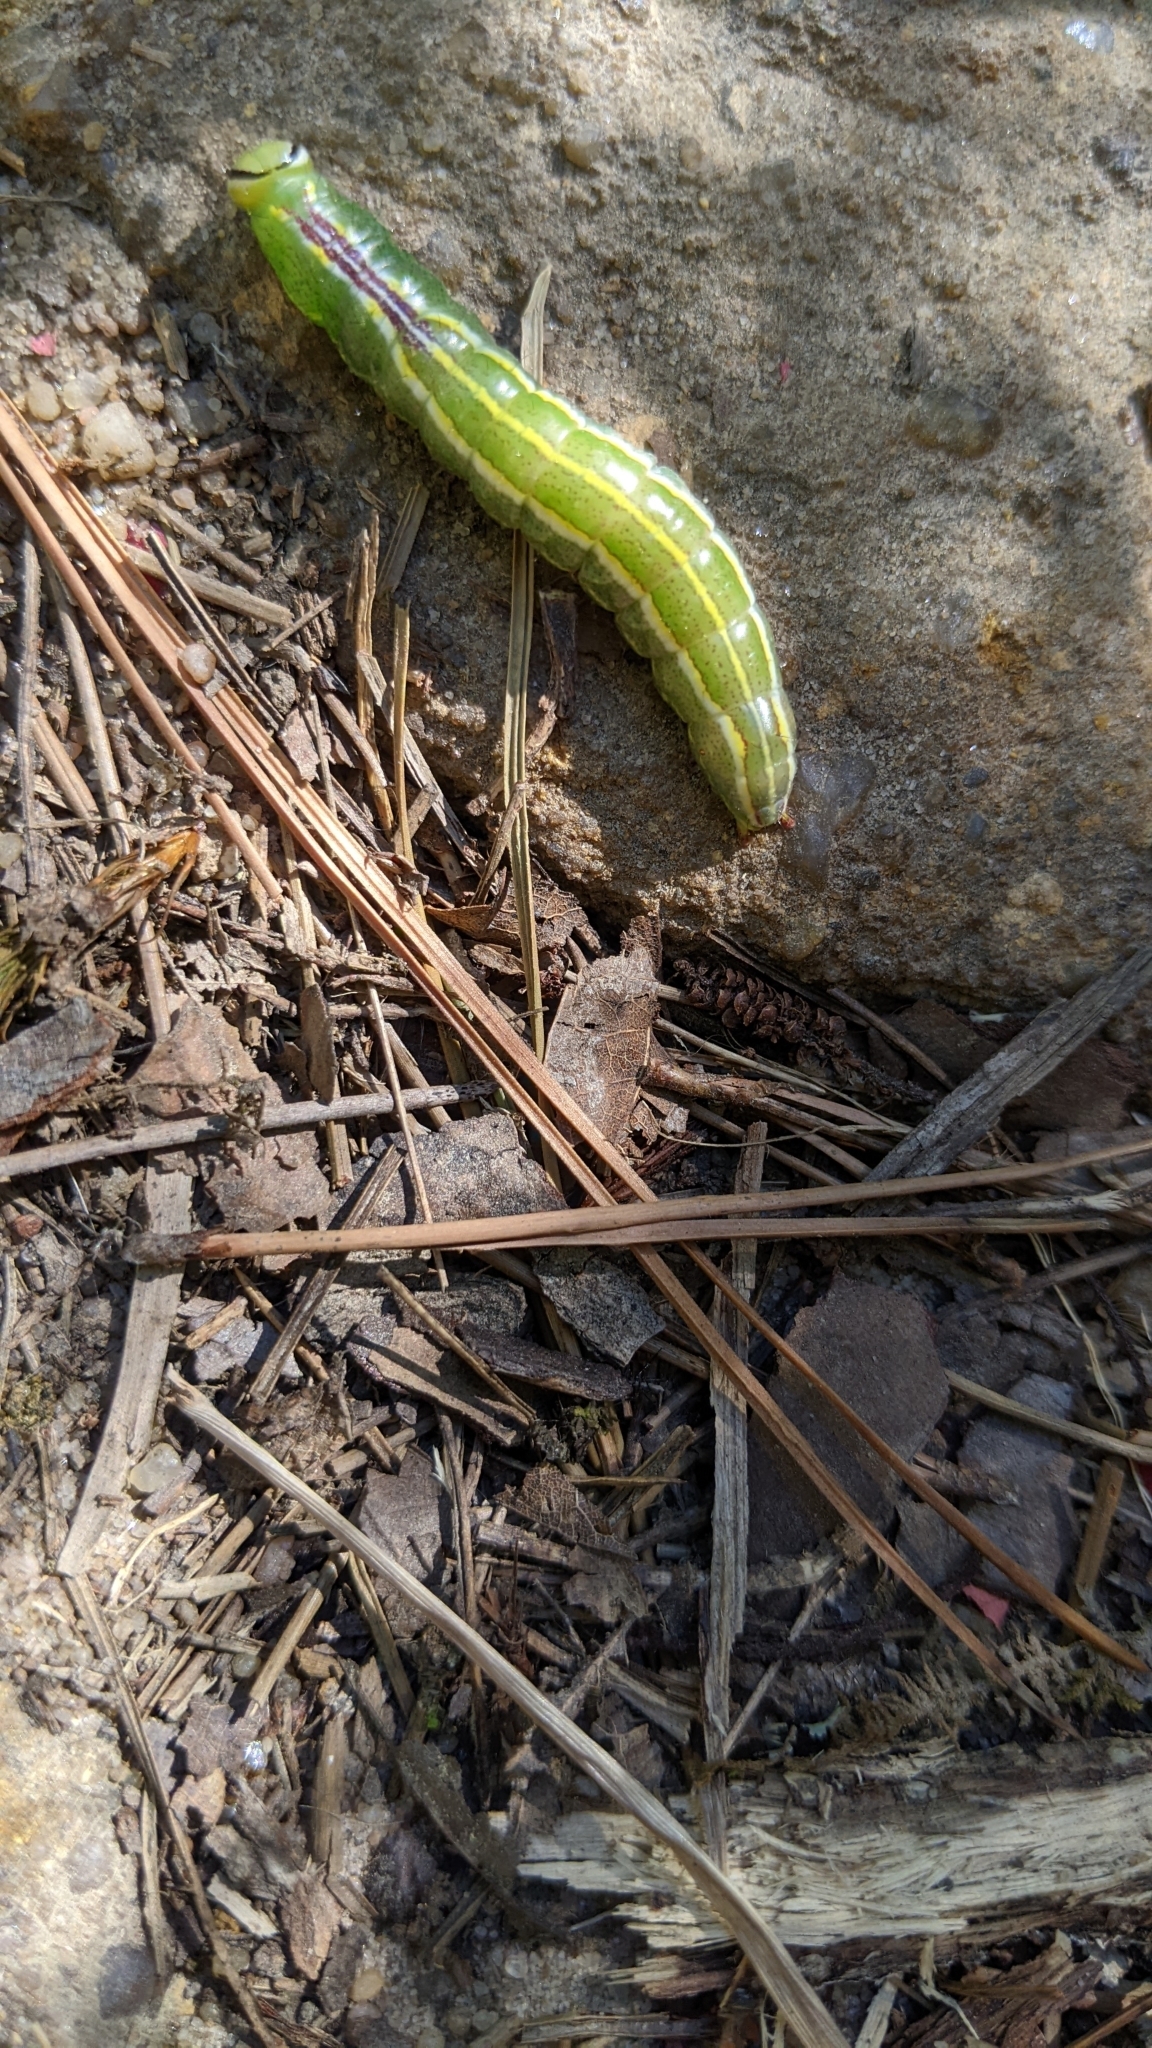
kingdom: Animalia
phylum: Arthropoda
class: Insecta
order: Lepidoptera
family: Notodontidae
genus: Lochmaeus
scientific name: Lochmaeus manteo
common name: Variable oakleaf caterpillar moth
